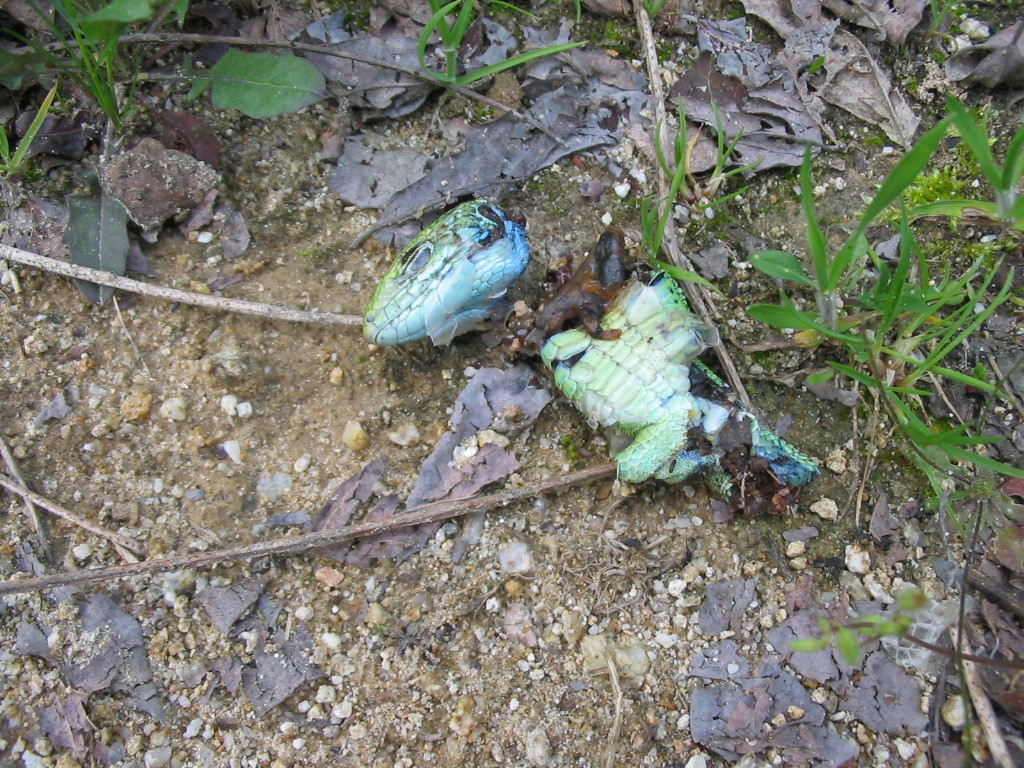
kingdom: Animalia
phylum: Chordata
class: Squamata
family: Lacertidae
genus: Lacerta
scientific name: Lacerta viridis
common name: European green lizard
